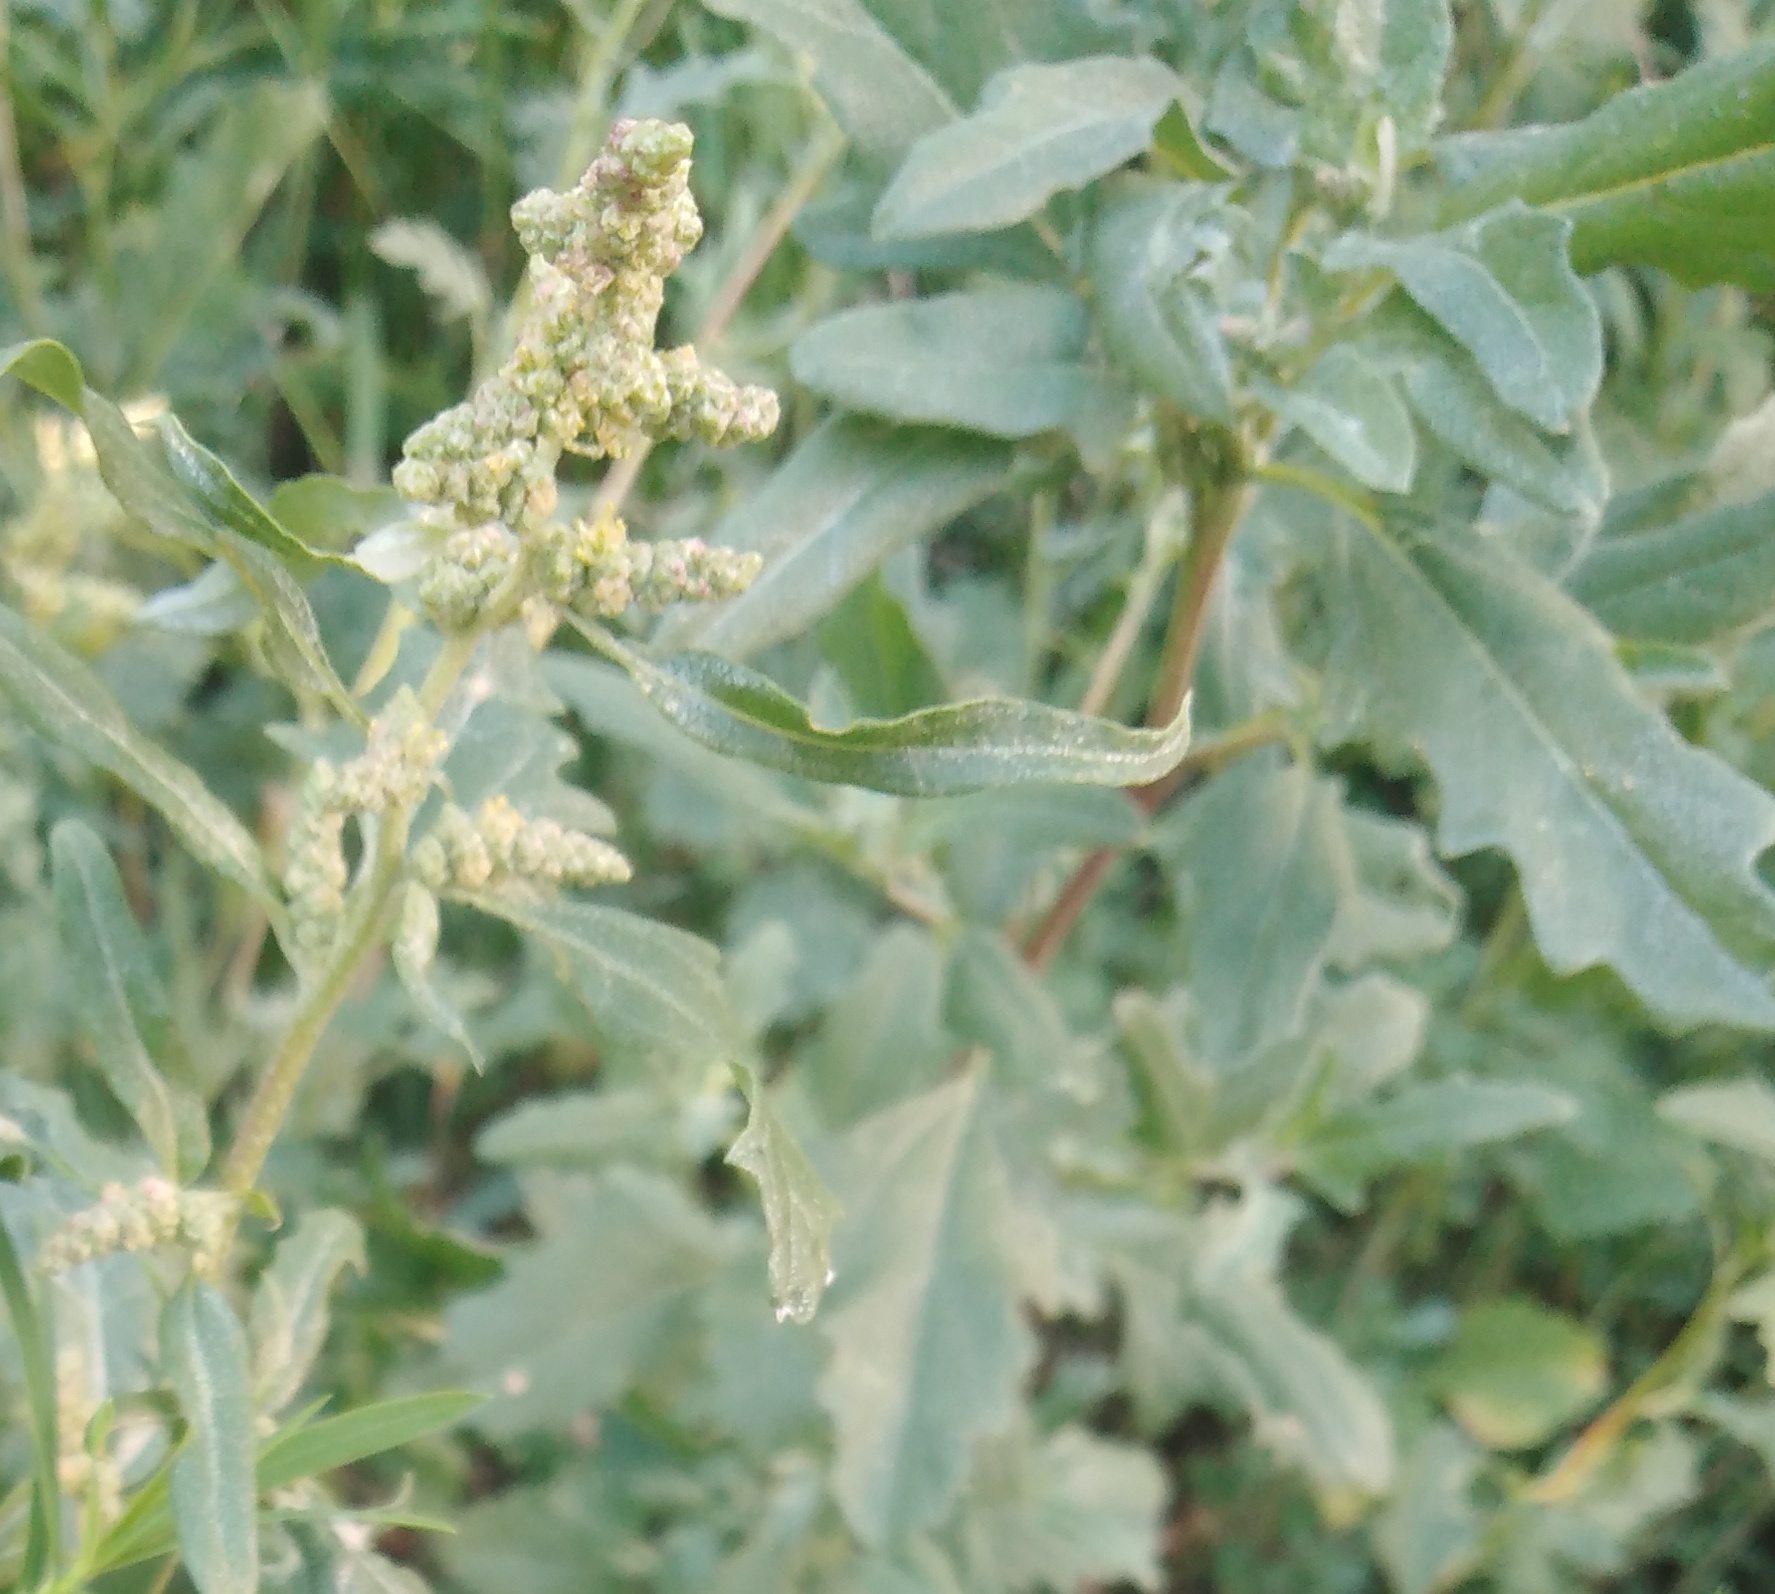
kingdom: Plantae
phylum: Tracheophyta
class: Magnoliopsida
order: Caryophyllales
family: Amaranthaceae
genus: Atriplex
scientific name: Atriplex tatarica
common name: Tatarian orache
